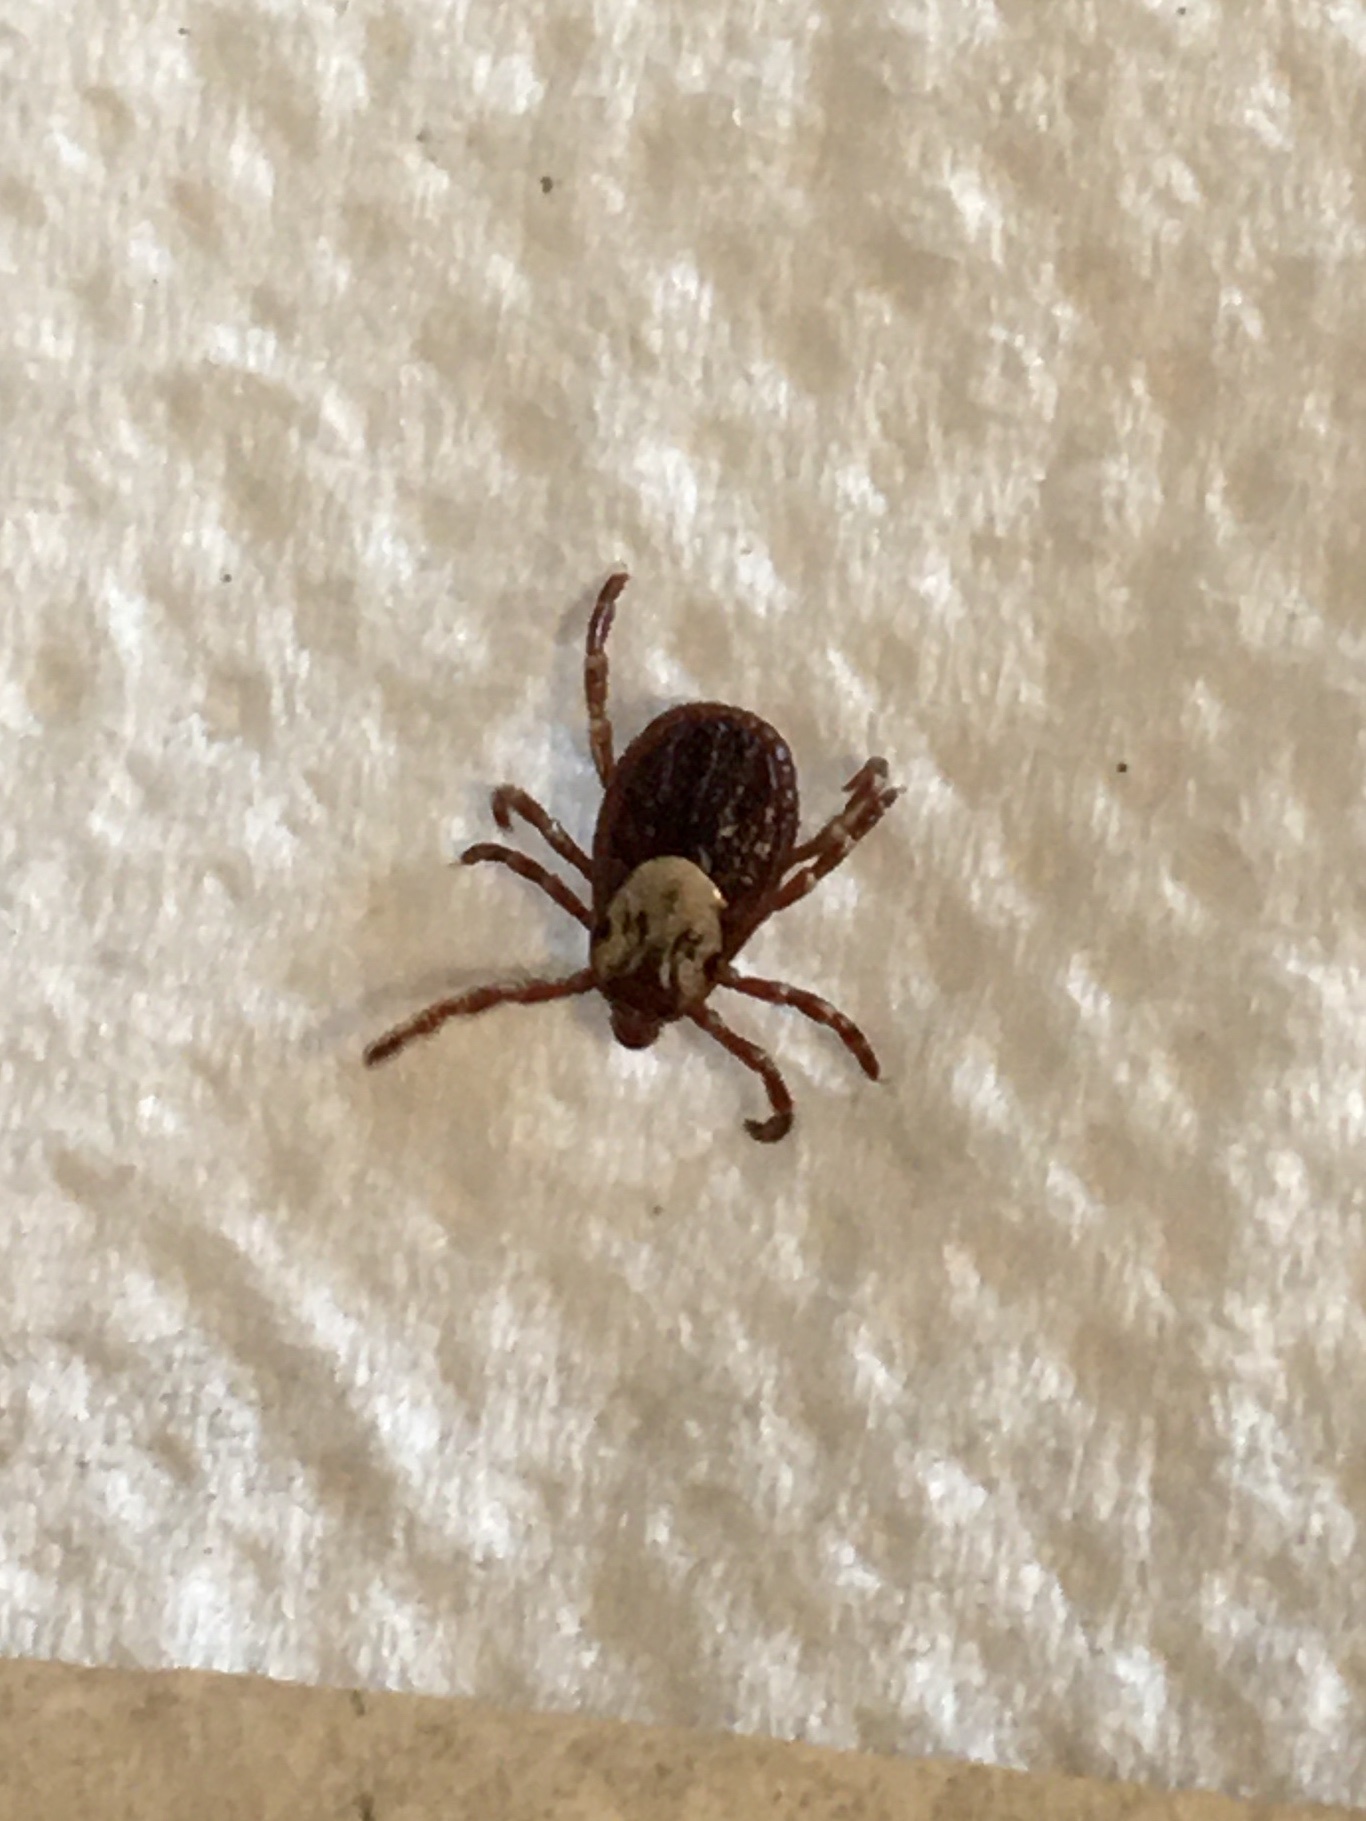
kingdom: Animalia
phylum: Arthropoda
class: Arachnida
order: Ixodida
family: Ixodidae
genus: Dermacentor
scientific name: Dermacentor variabilis
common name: American dog tick
